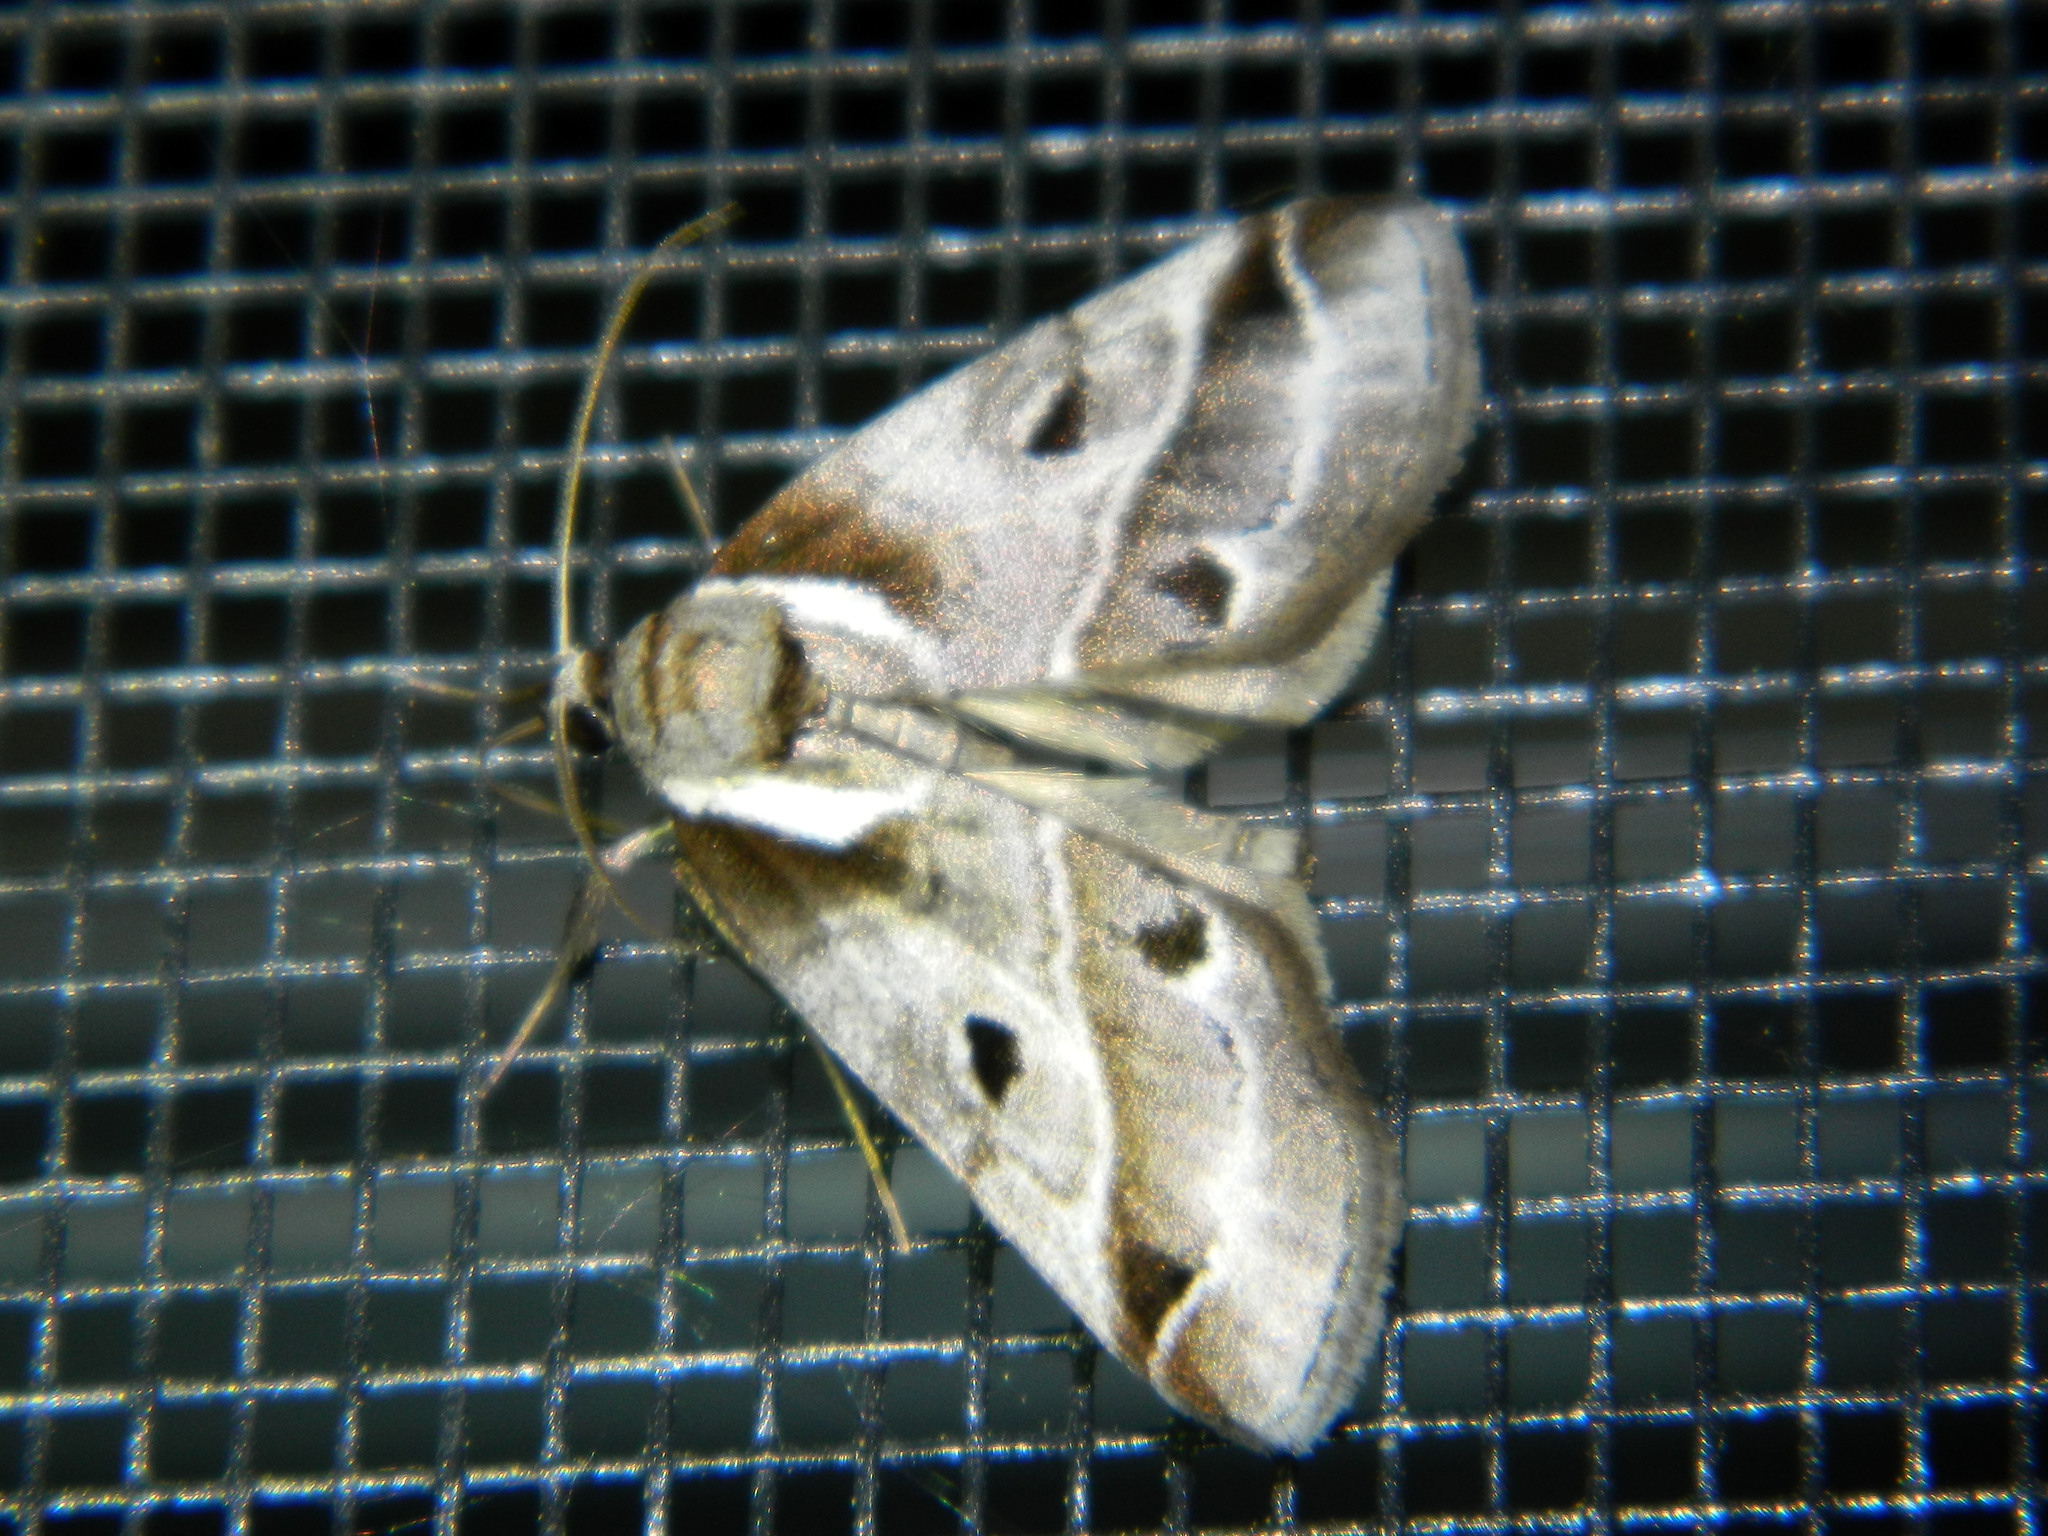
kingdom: Animalia
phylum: Arthropoda
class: Insecta
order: Lepidoptera
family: Nolidae
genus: Baileya
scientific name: Baileya doubledayi
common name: Doubleday's baileya moth
